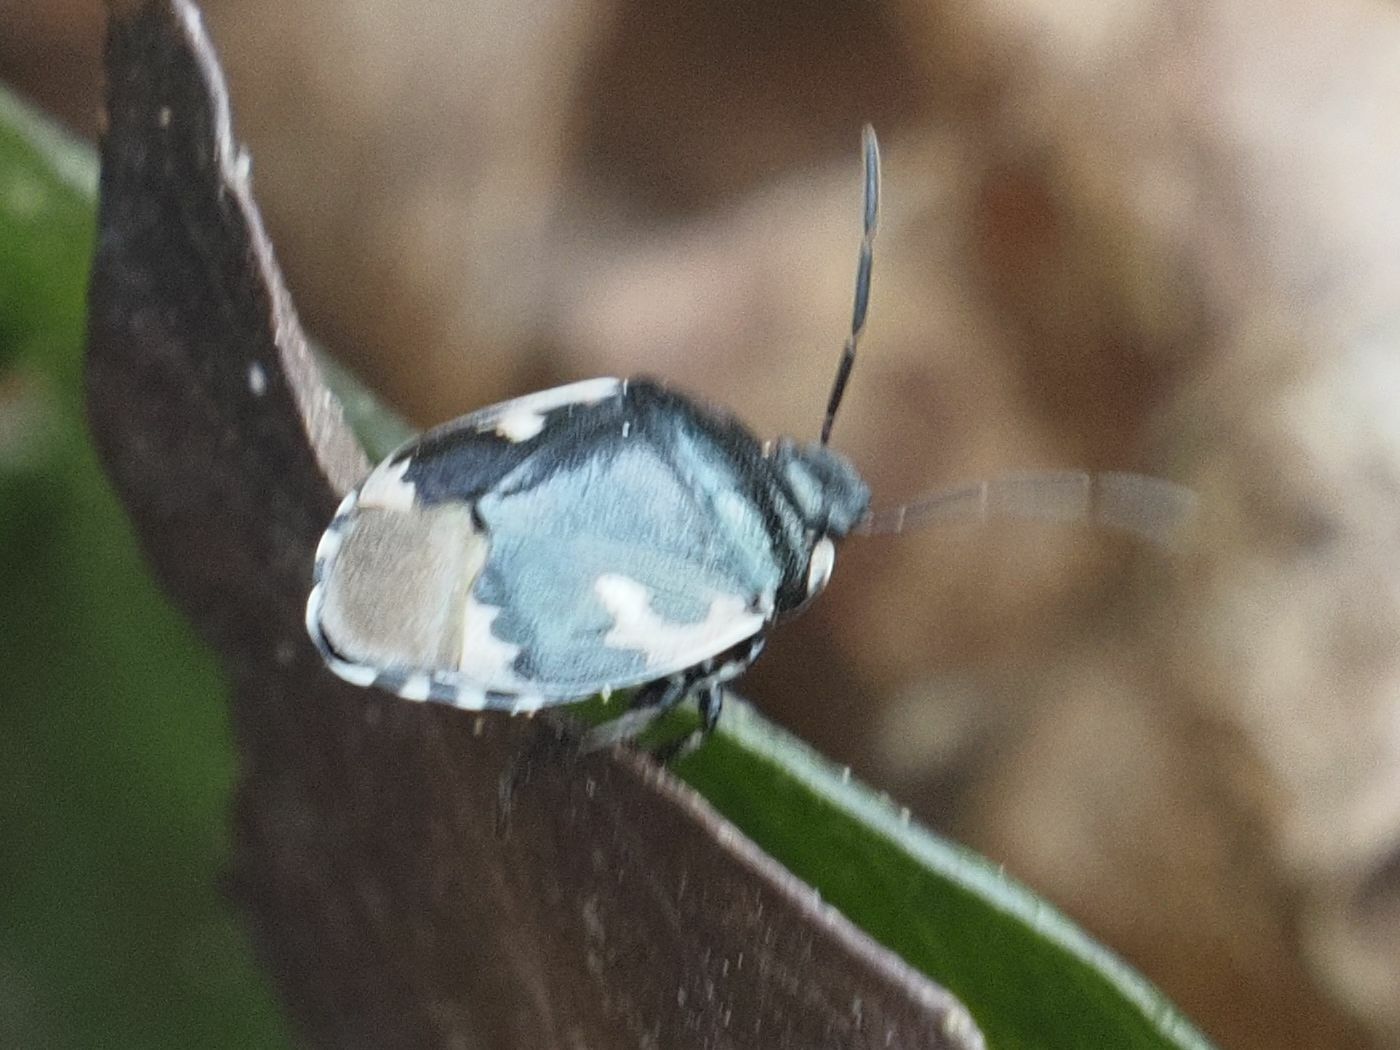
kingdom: Animalia
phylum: Arthropoda
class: Insecta
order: Hemiptera
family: Cydnidae
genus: Tritomegas
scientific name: Tritomegas bicolor
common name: Pied shieldbug
